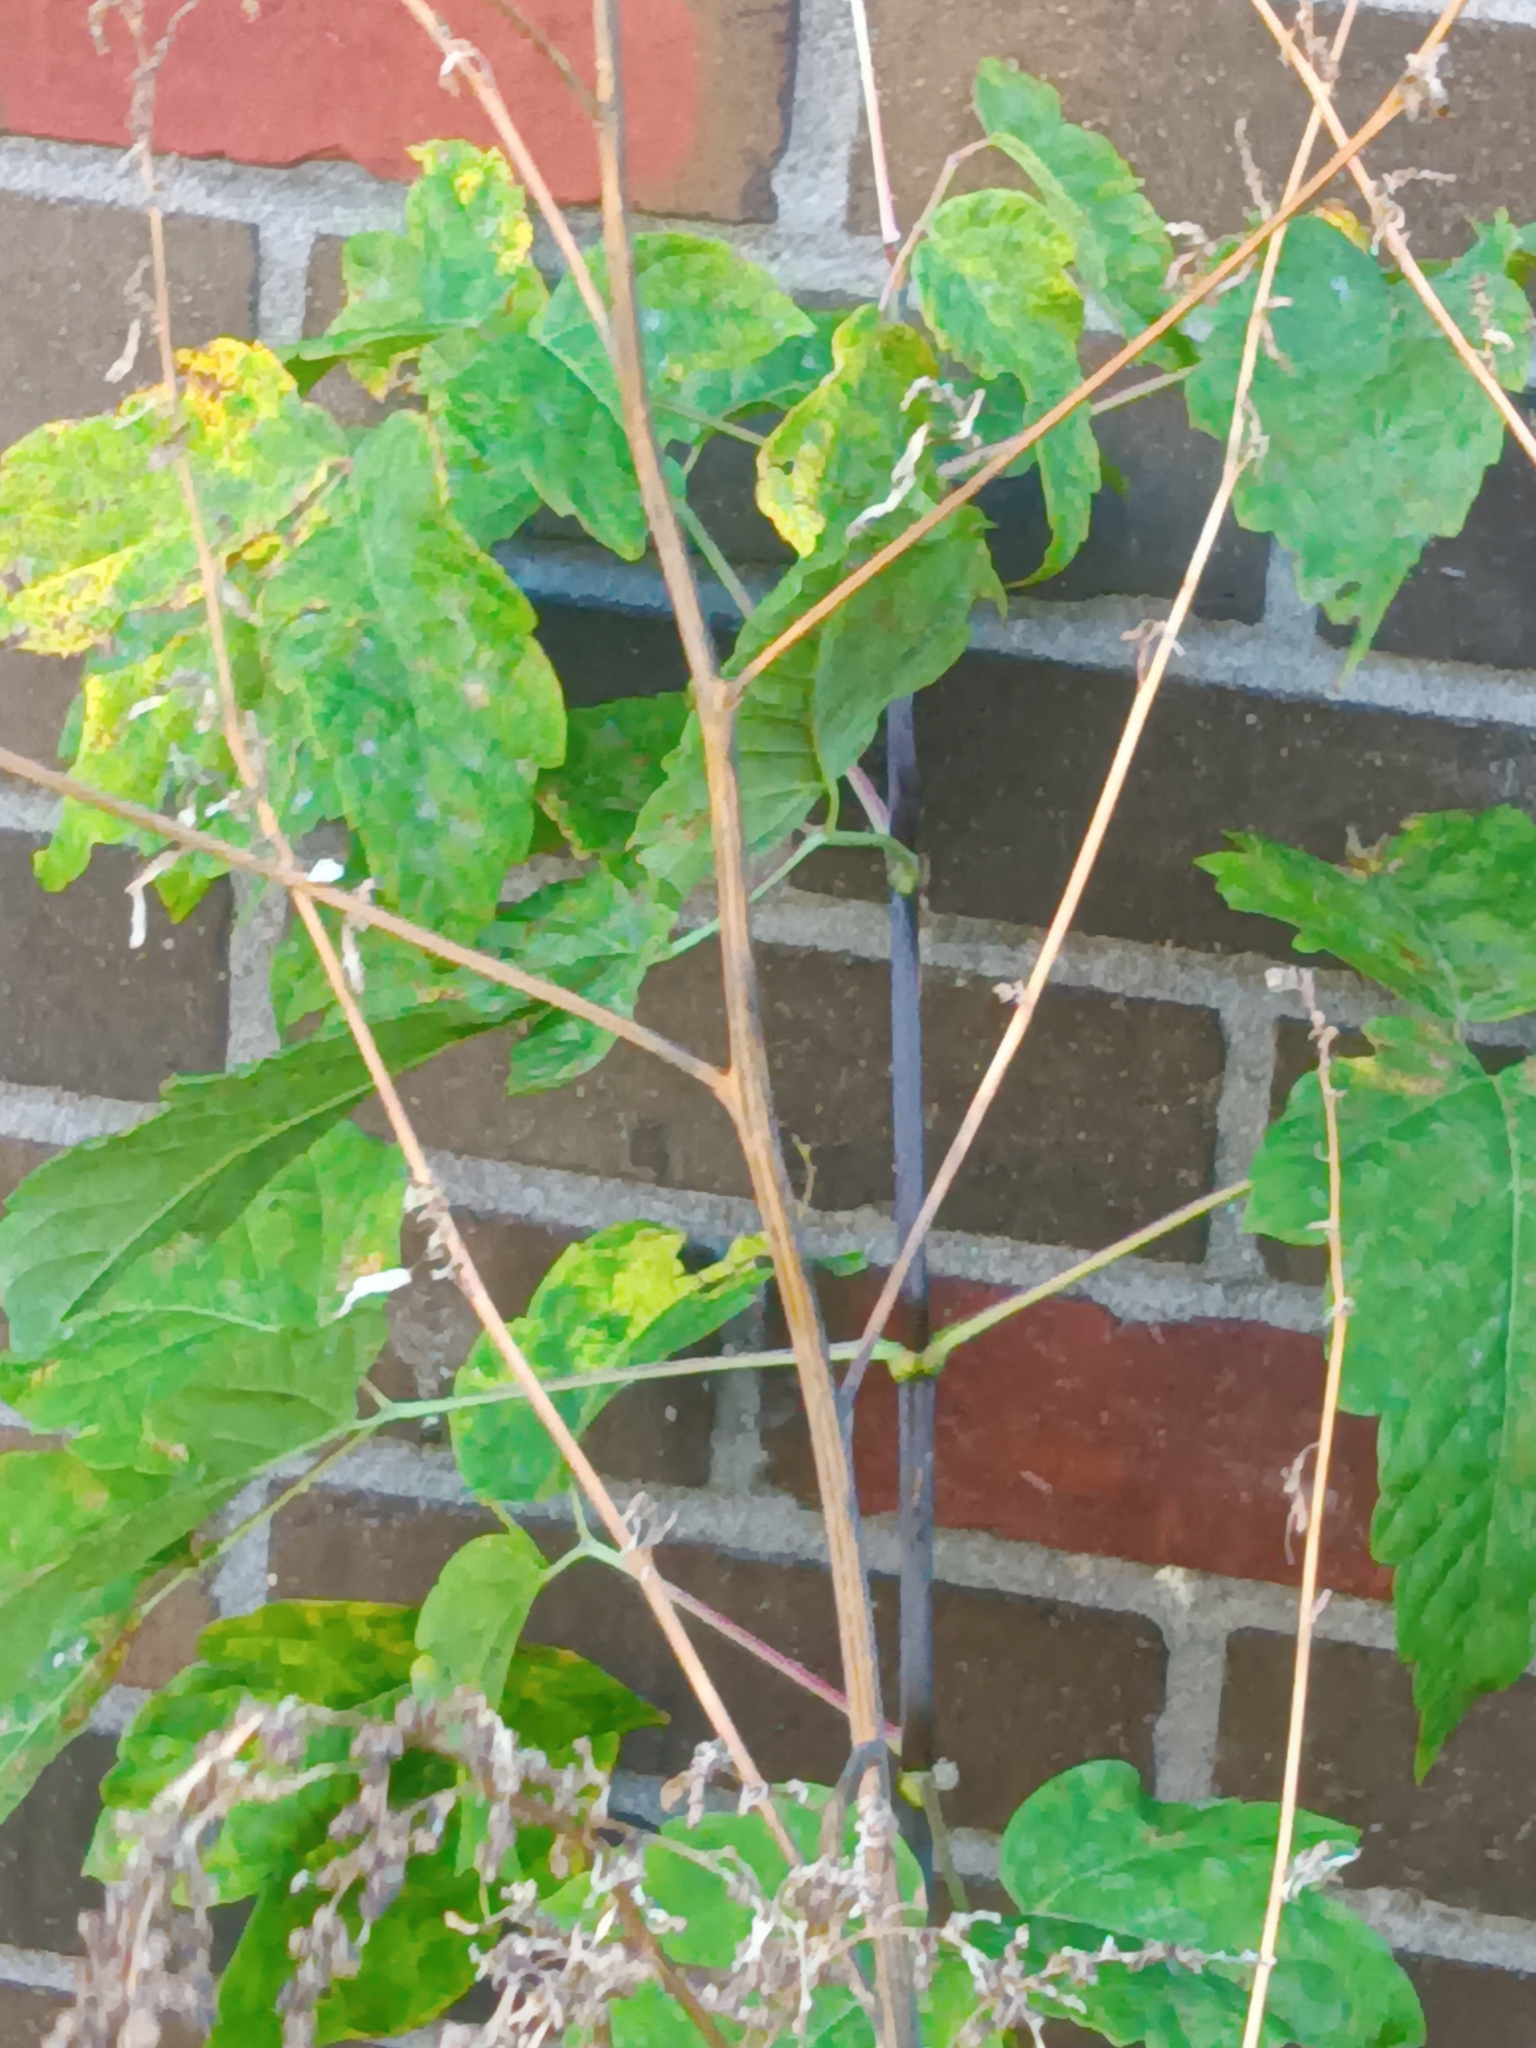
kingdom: Plantae
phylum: Tracheophyta
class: Magnoliopsida
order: Sapindales
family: Sapindaceae
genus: Acer
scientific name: Acer negundo
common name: Ashleaf maple
